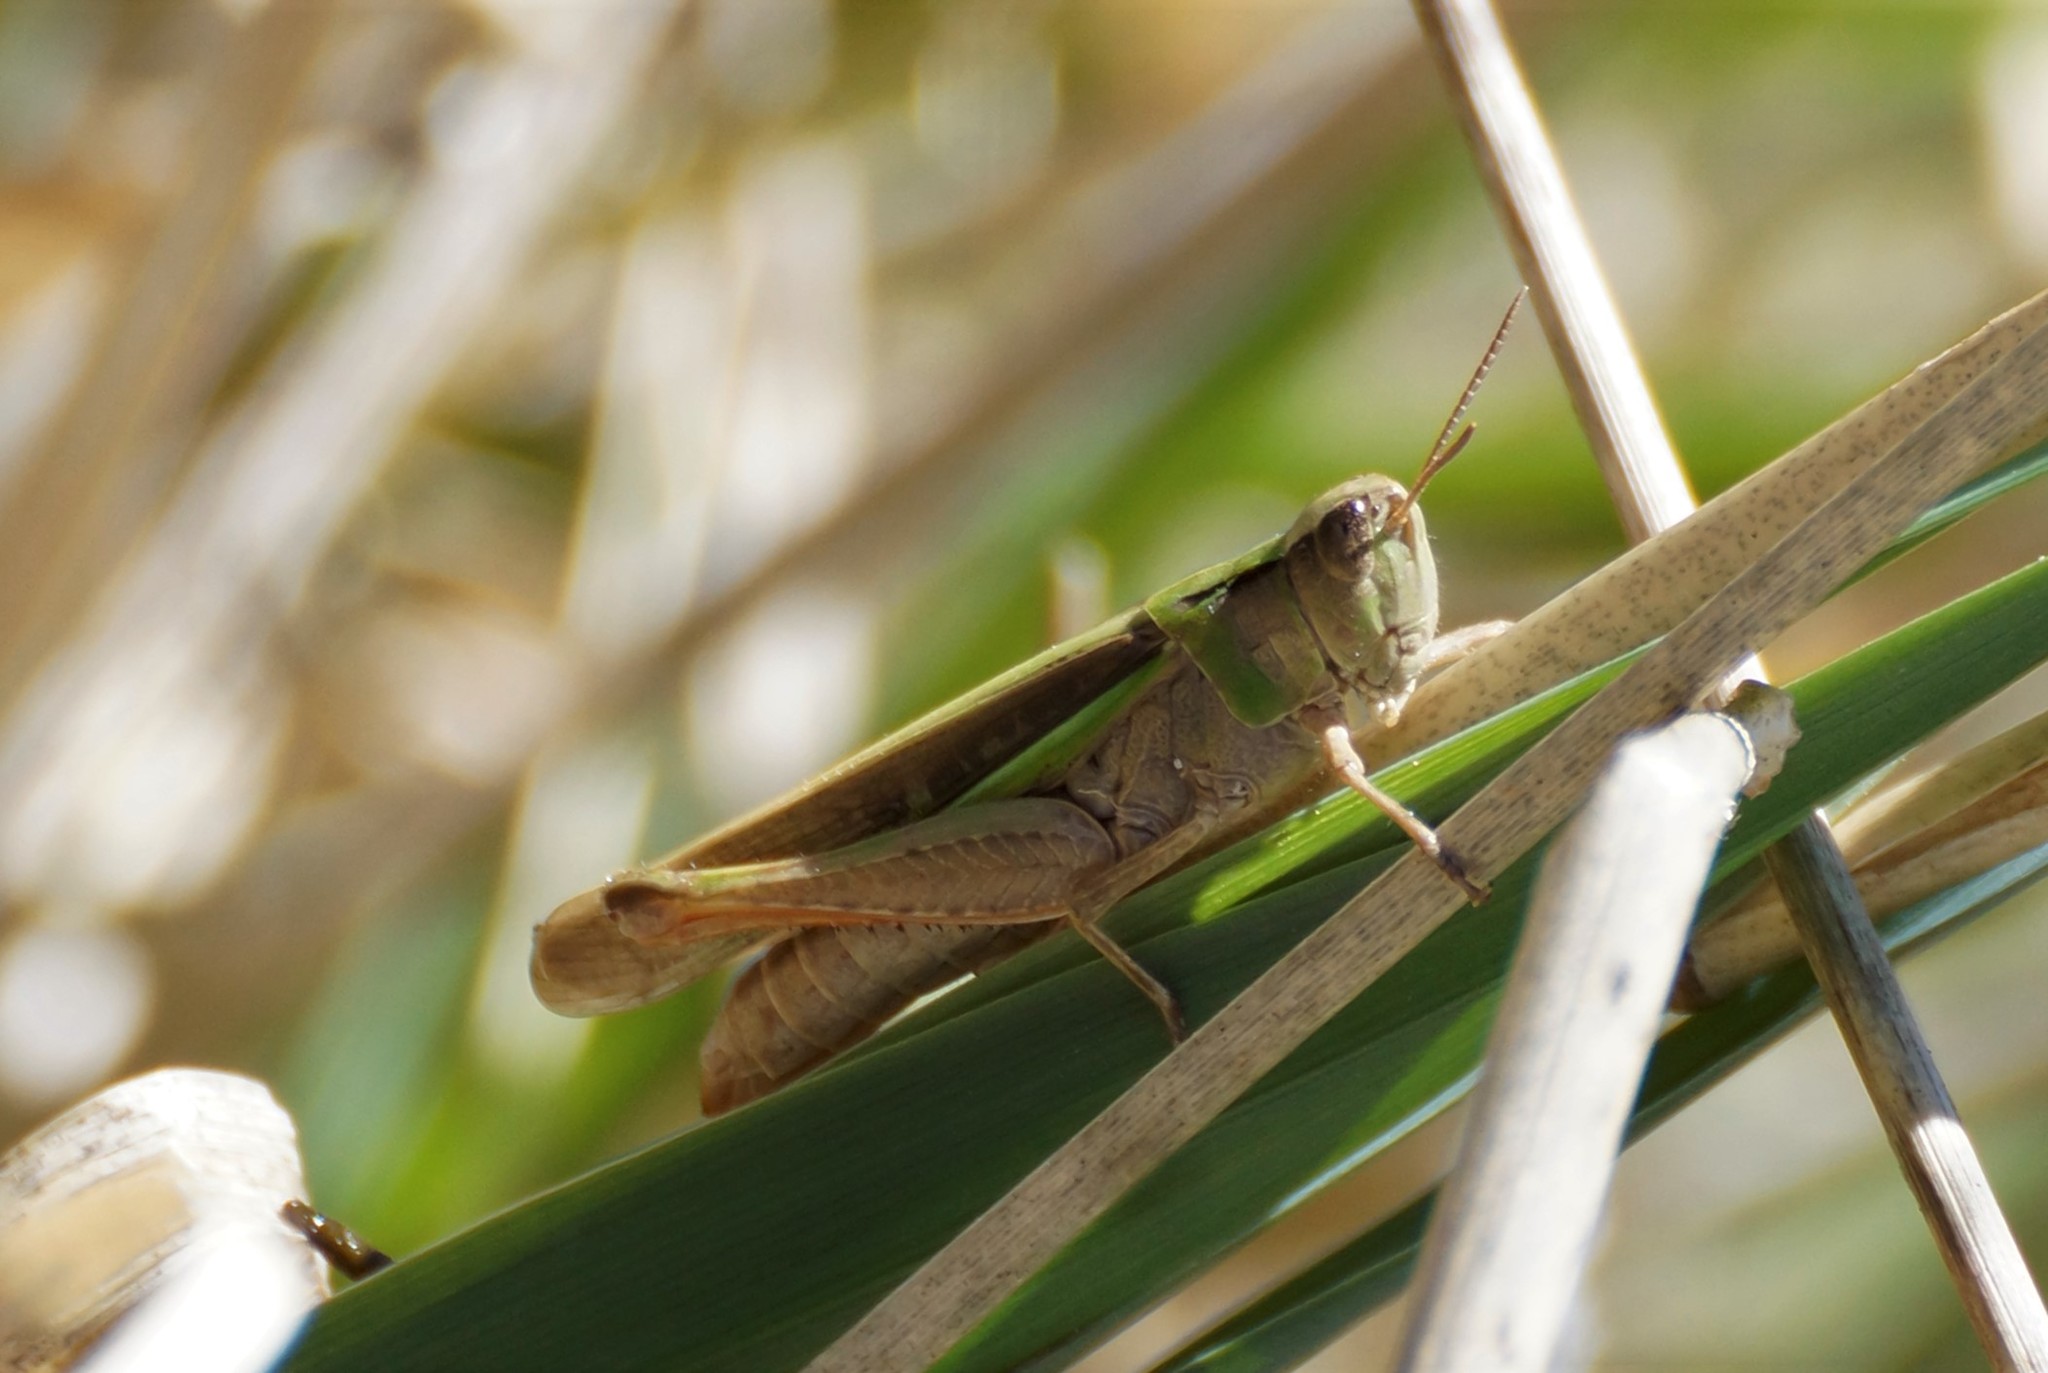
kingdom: Animalia
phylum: Arthropoda
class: Insecta
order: Orthoptera
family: Acrididae
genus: Schizobothrus
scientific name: Schizobothrus flavovittatus
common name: Disappearing grasshopper
